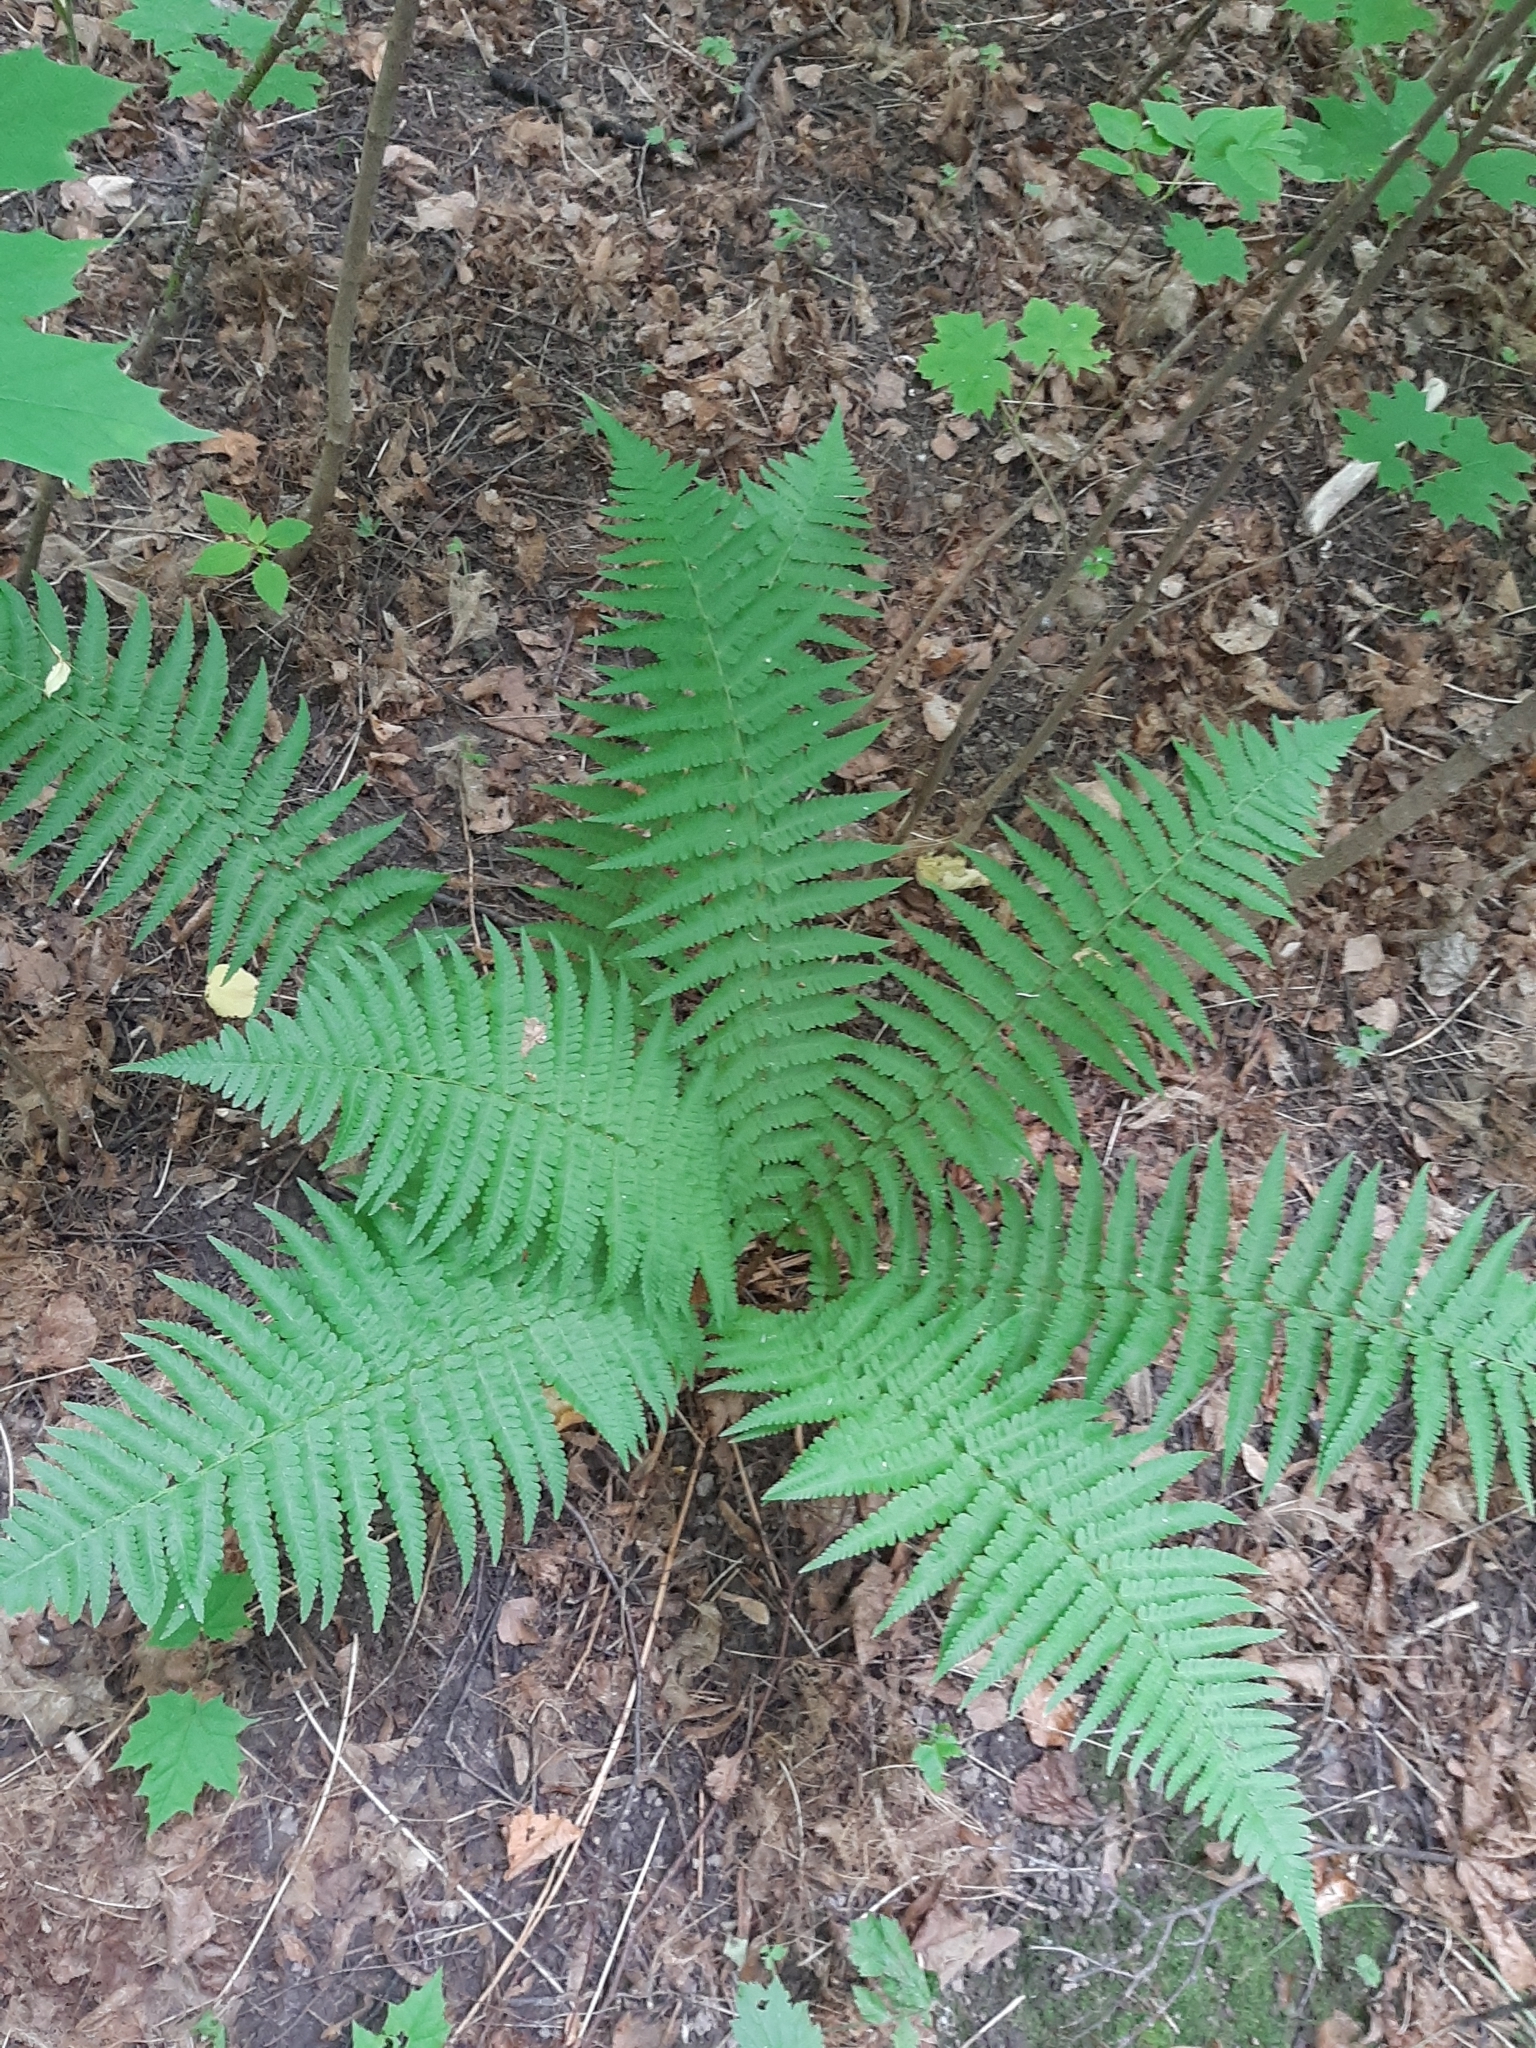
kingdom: Plantae
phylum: Tracheophyta
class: Polypodiopsida
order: Polypodiales
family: Dryopteridaceae
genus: Dryopteris
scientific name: Dryopteris filix-mas
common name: Male fern
